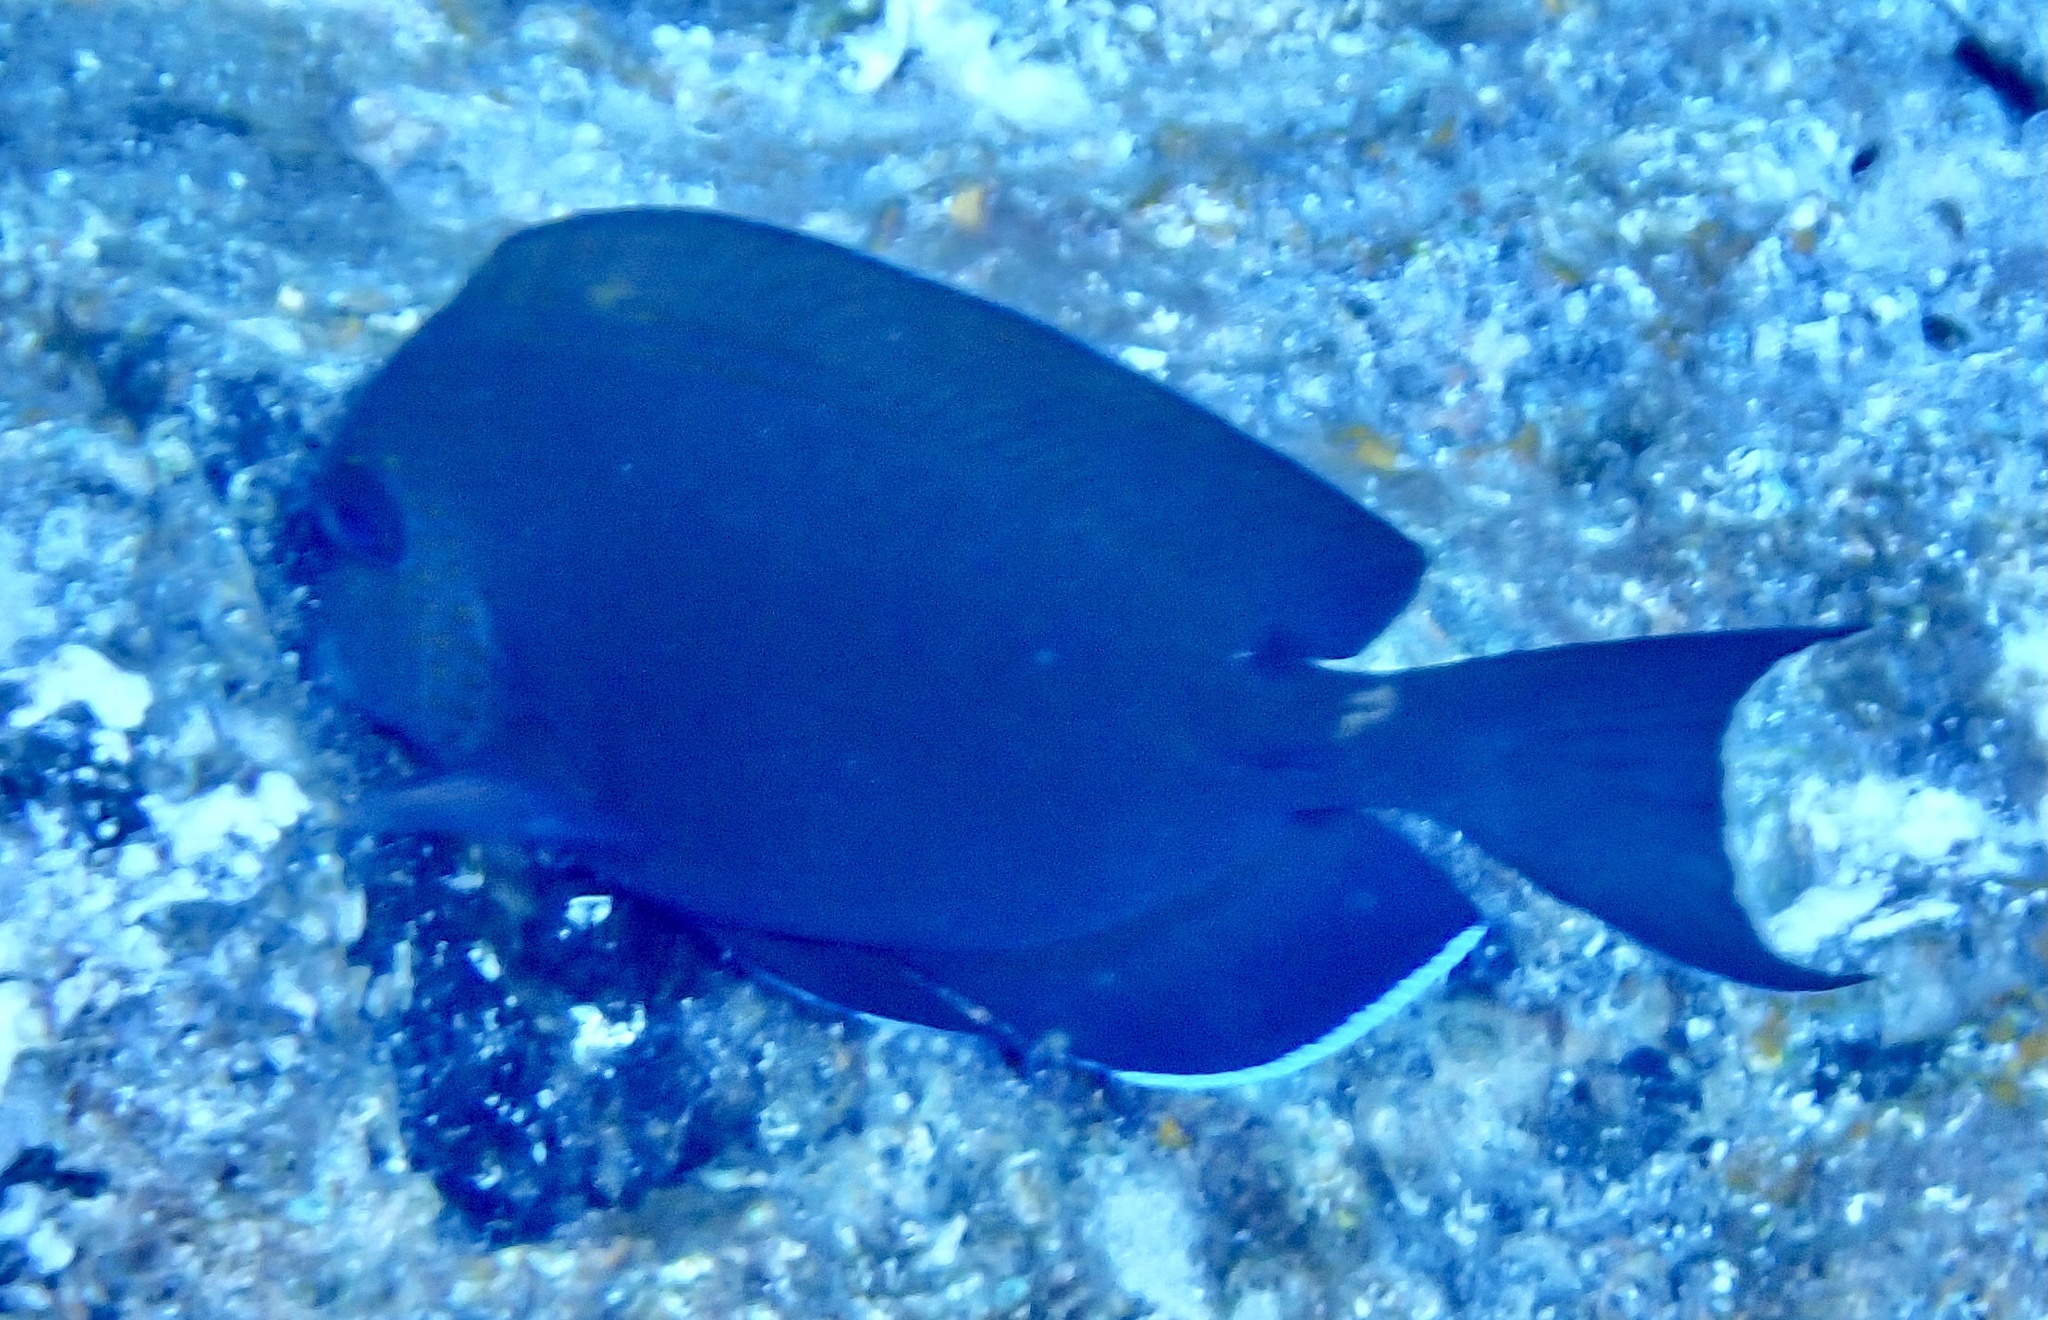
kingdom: Animalia
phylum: Chordata
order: Perciformes
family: Acanthuridae
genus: Acanthurus
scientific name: Acanthurus nigrofuscus
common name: Blackspot surgeonfish
